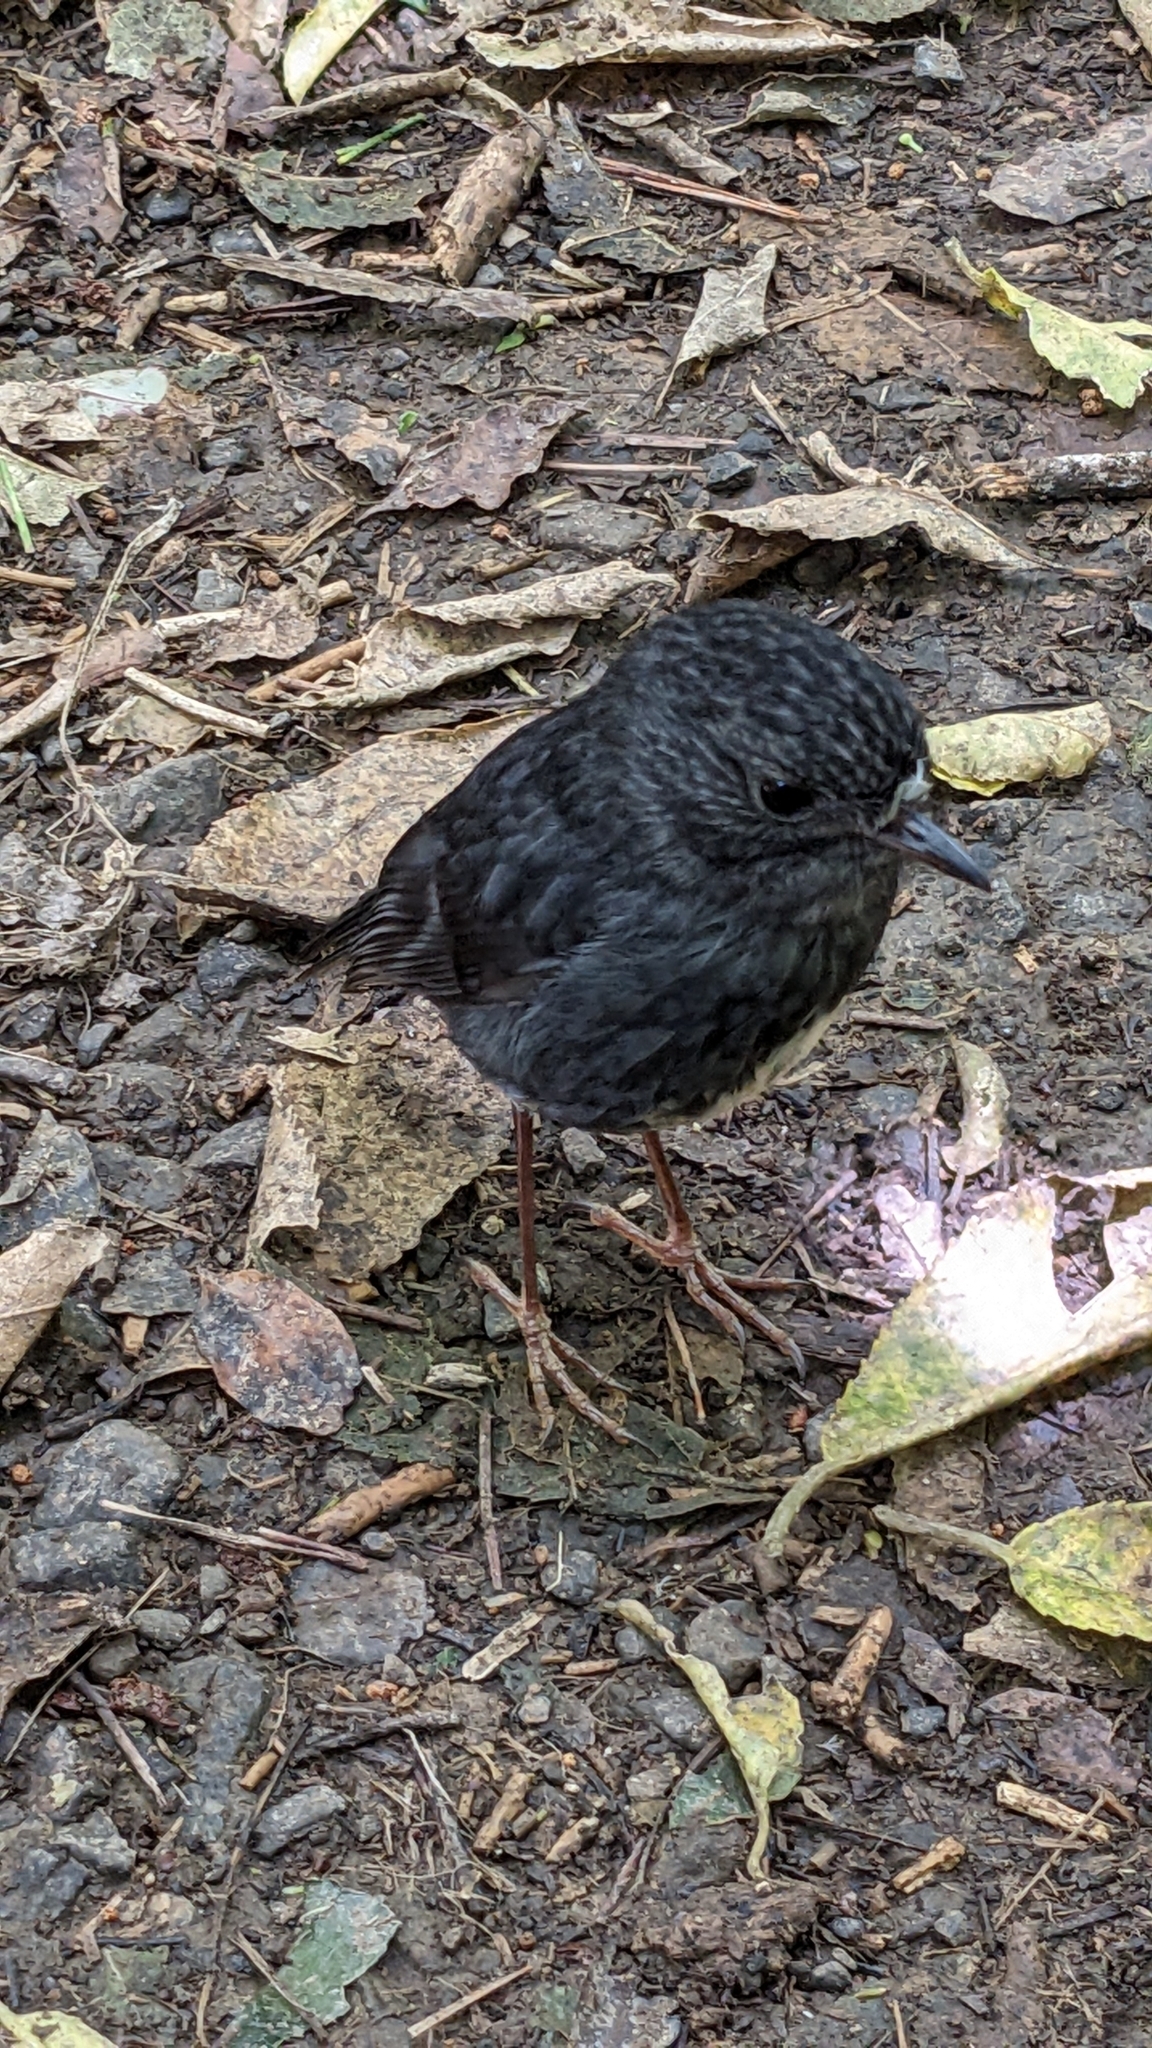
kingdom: Animalia
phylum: Chordata
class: Aves
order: Passeriformes
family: Petroicidae
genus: Petroica
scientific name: Petroica australis
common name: New zealand robin
